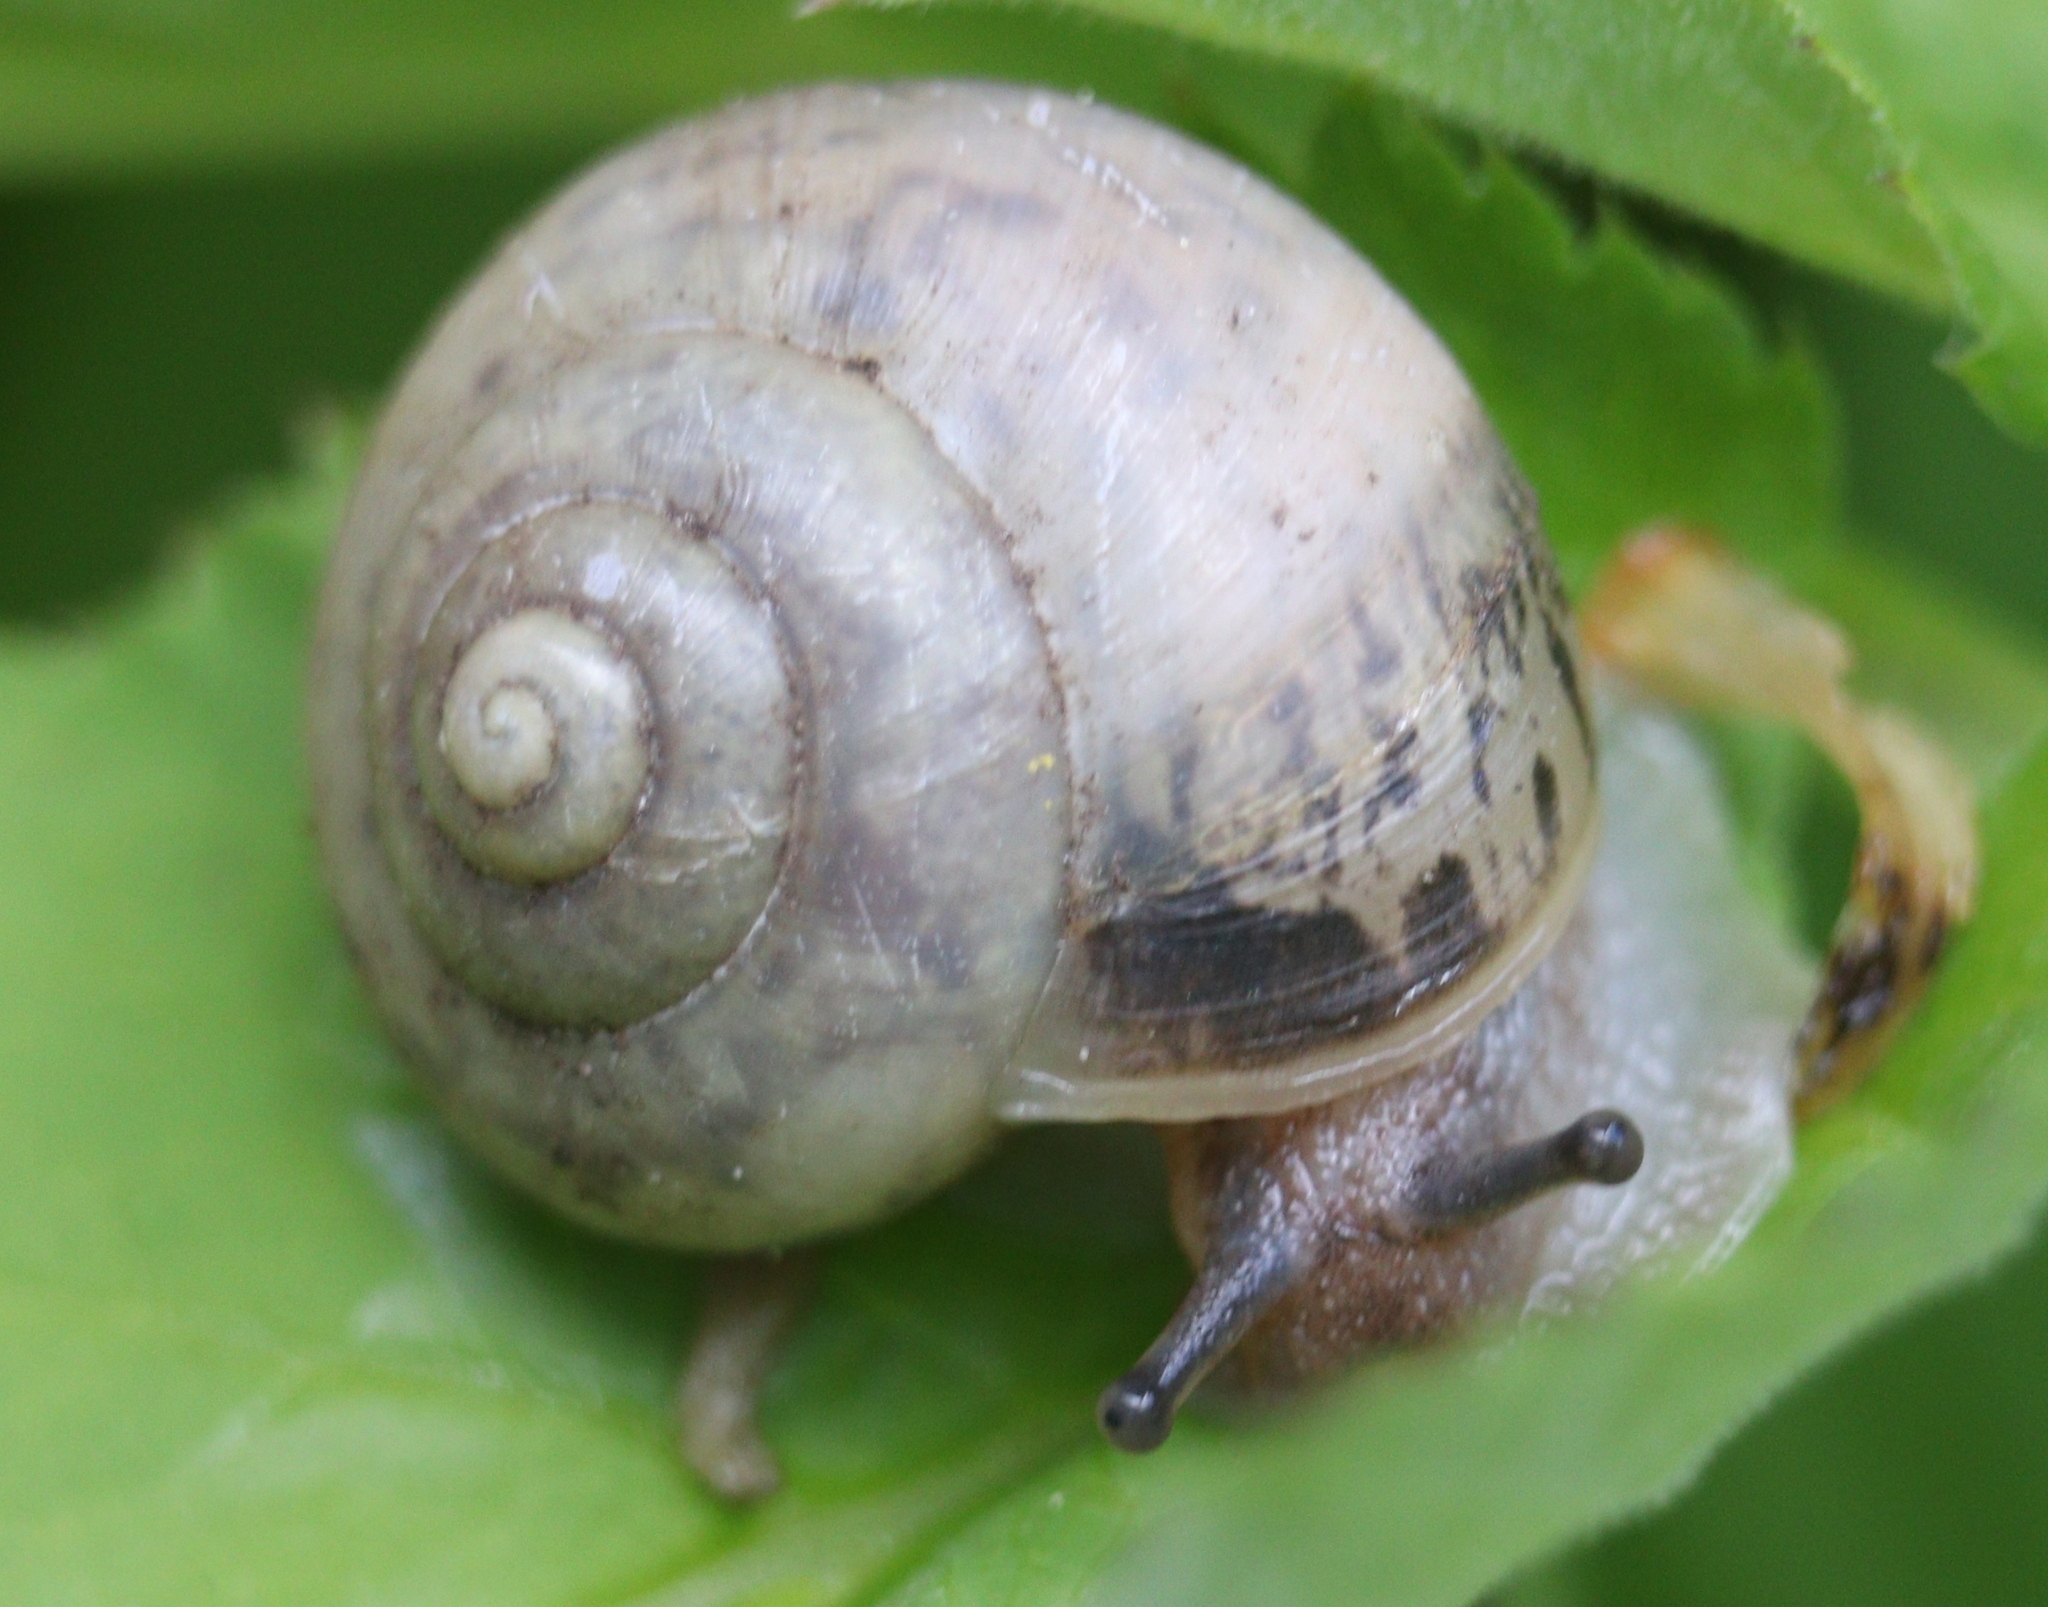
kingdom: Animalia
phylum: Mollusca
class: Gastropoda
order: Stylommatophora
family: Camaenidae
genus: Fruticicola
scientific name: Fruticicola fruticum
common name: Bush snail
